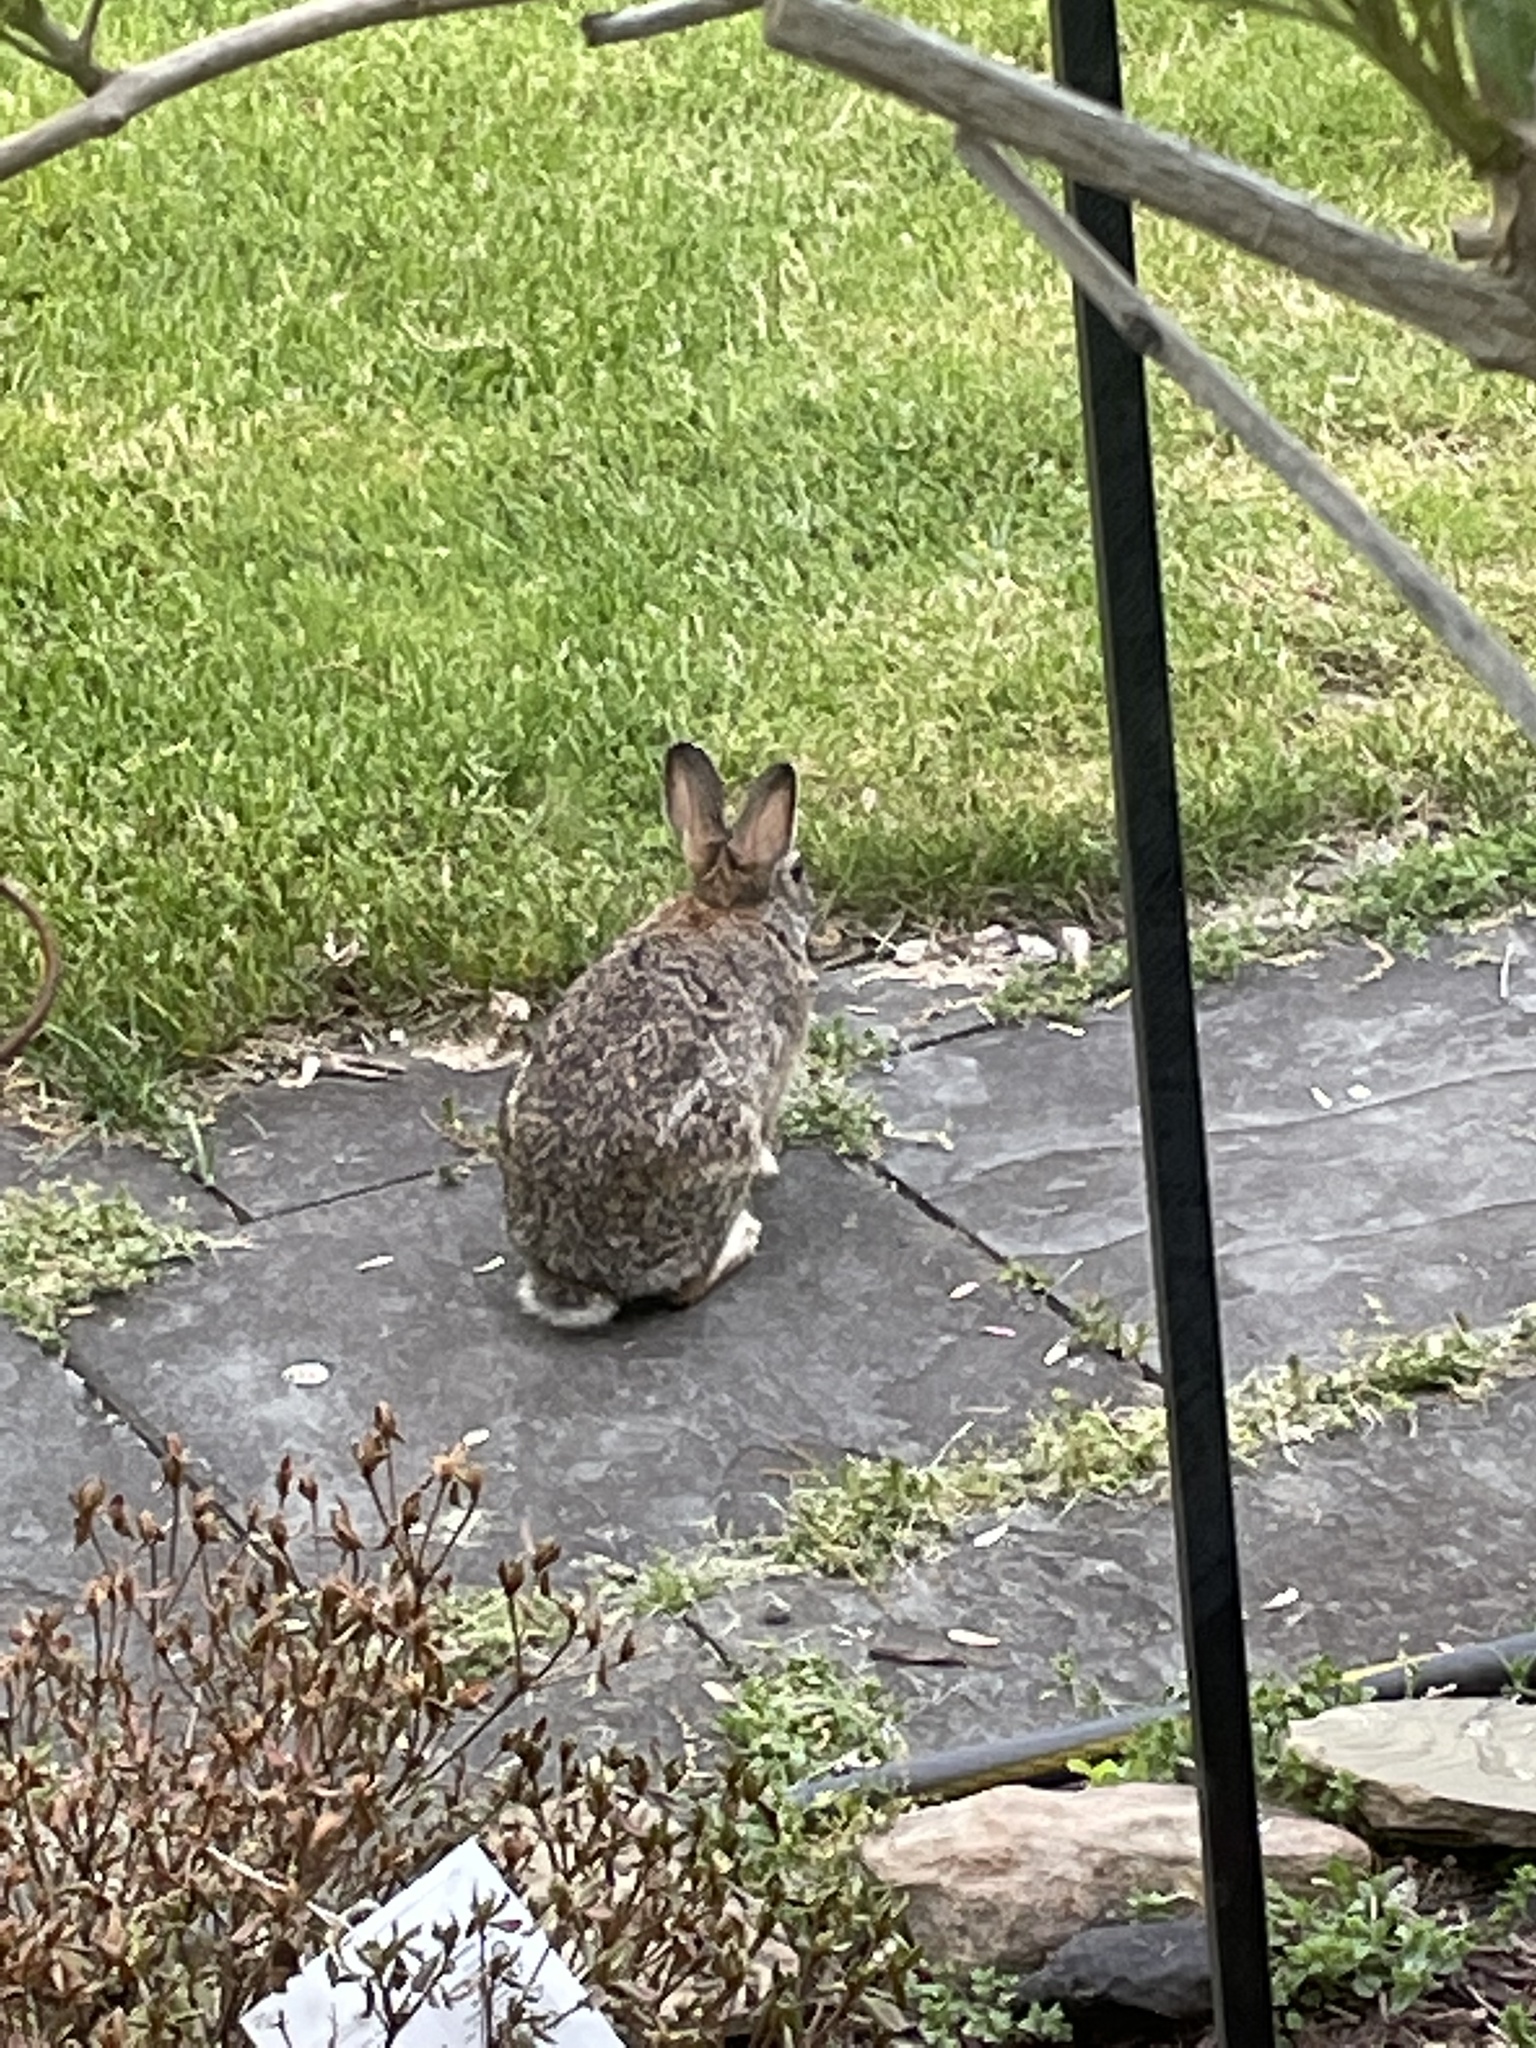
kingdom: Animalia
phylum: Chordata
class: Mammalia
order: Lagomorpha
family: Leporidae
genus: Sylvilagus
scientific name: Sylvilagus floridanus
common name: Eastern cottontail
